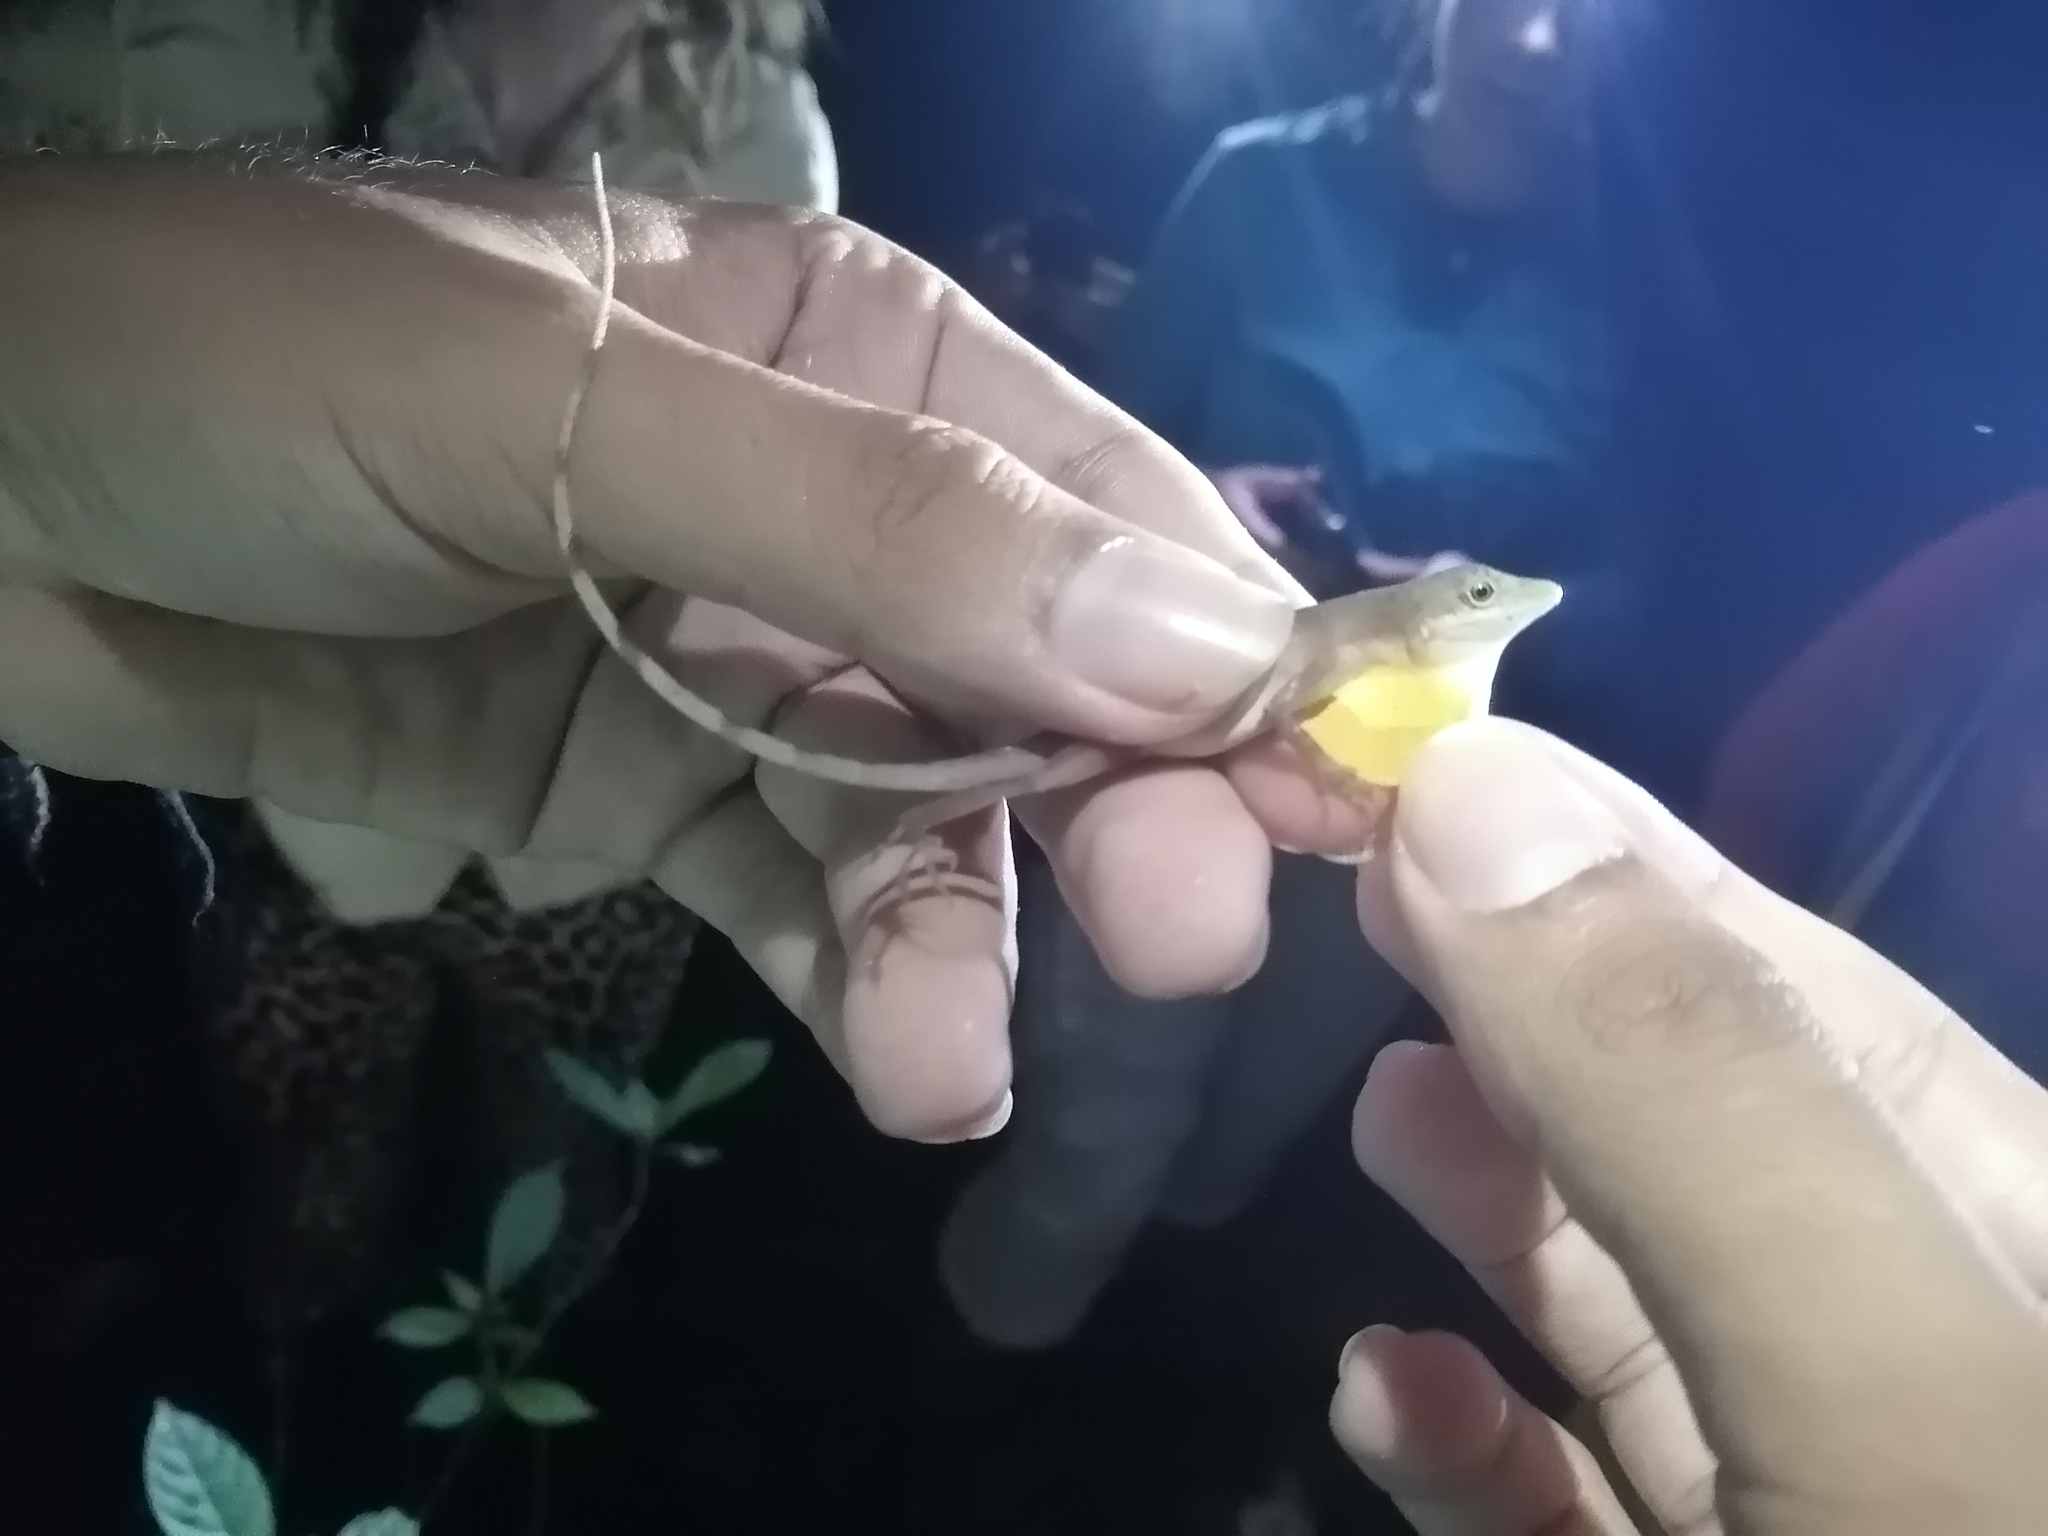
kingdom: Animalia
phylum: Chordata
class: Squamata
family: Dactyloidae
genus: Anolis
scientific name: Anolis gaigei
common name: Gaige’s anole
